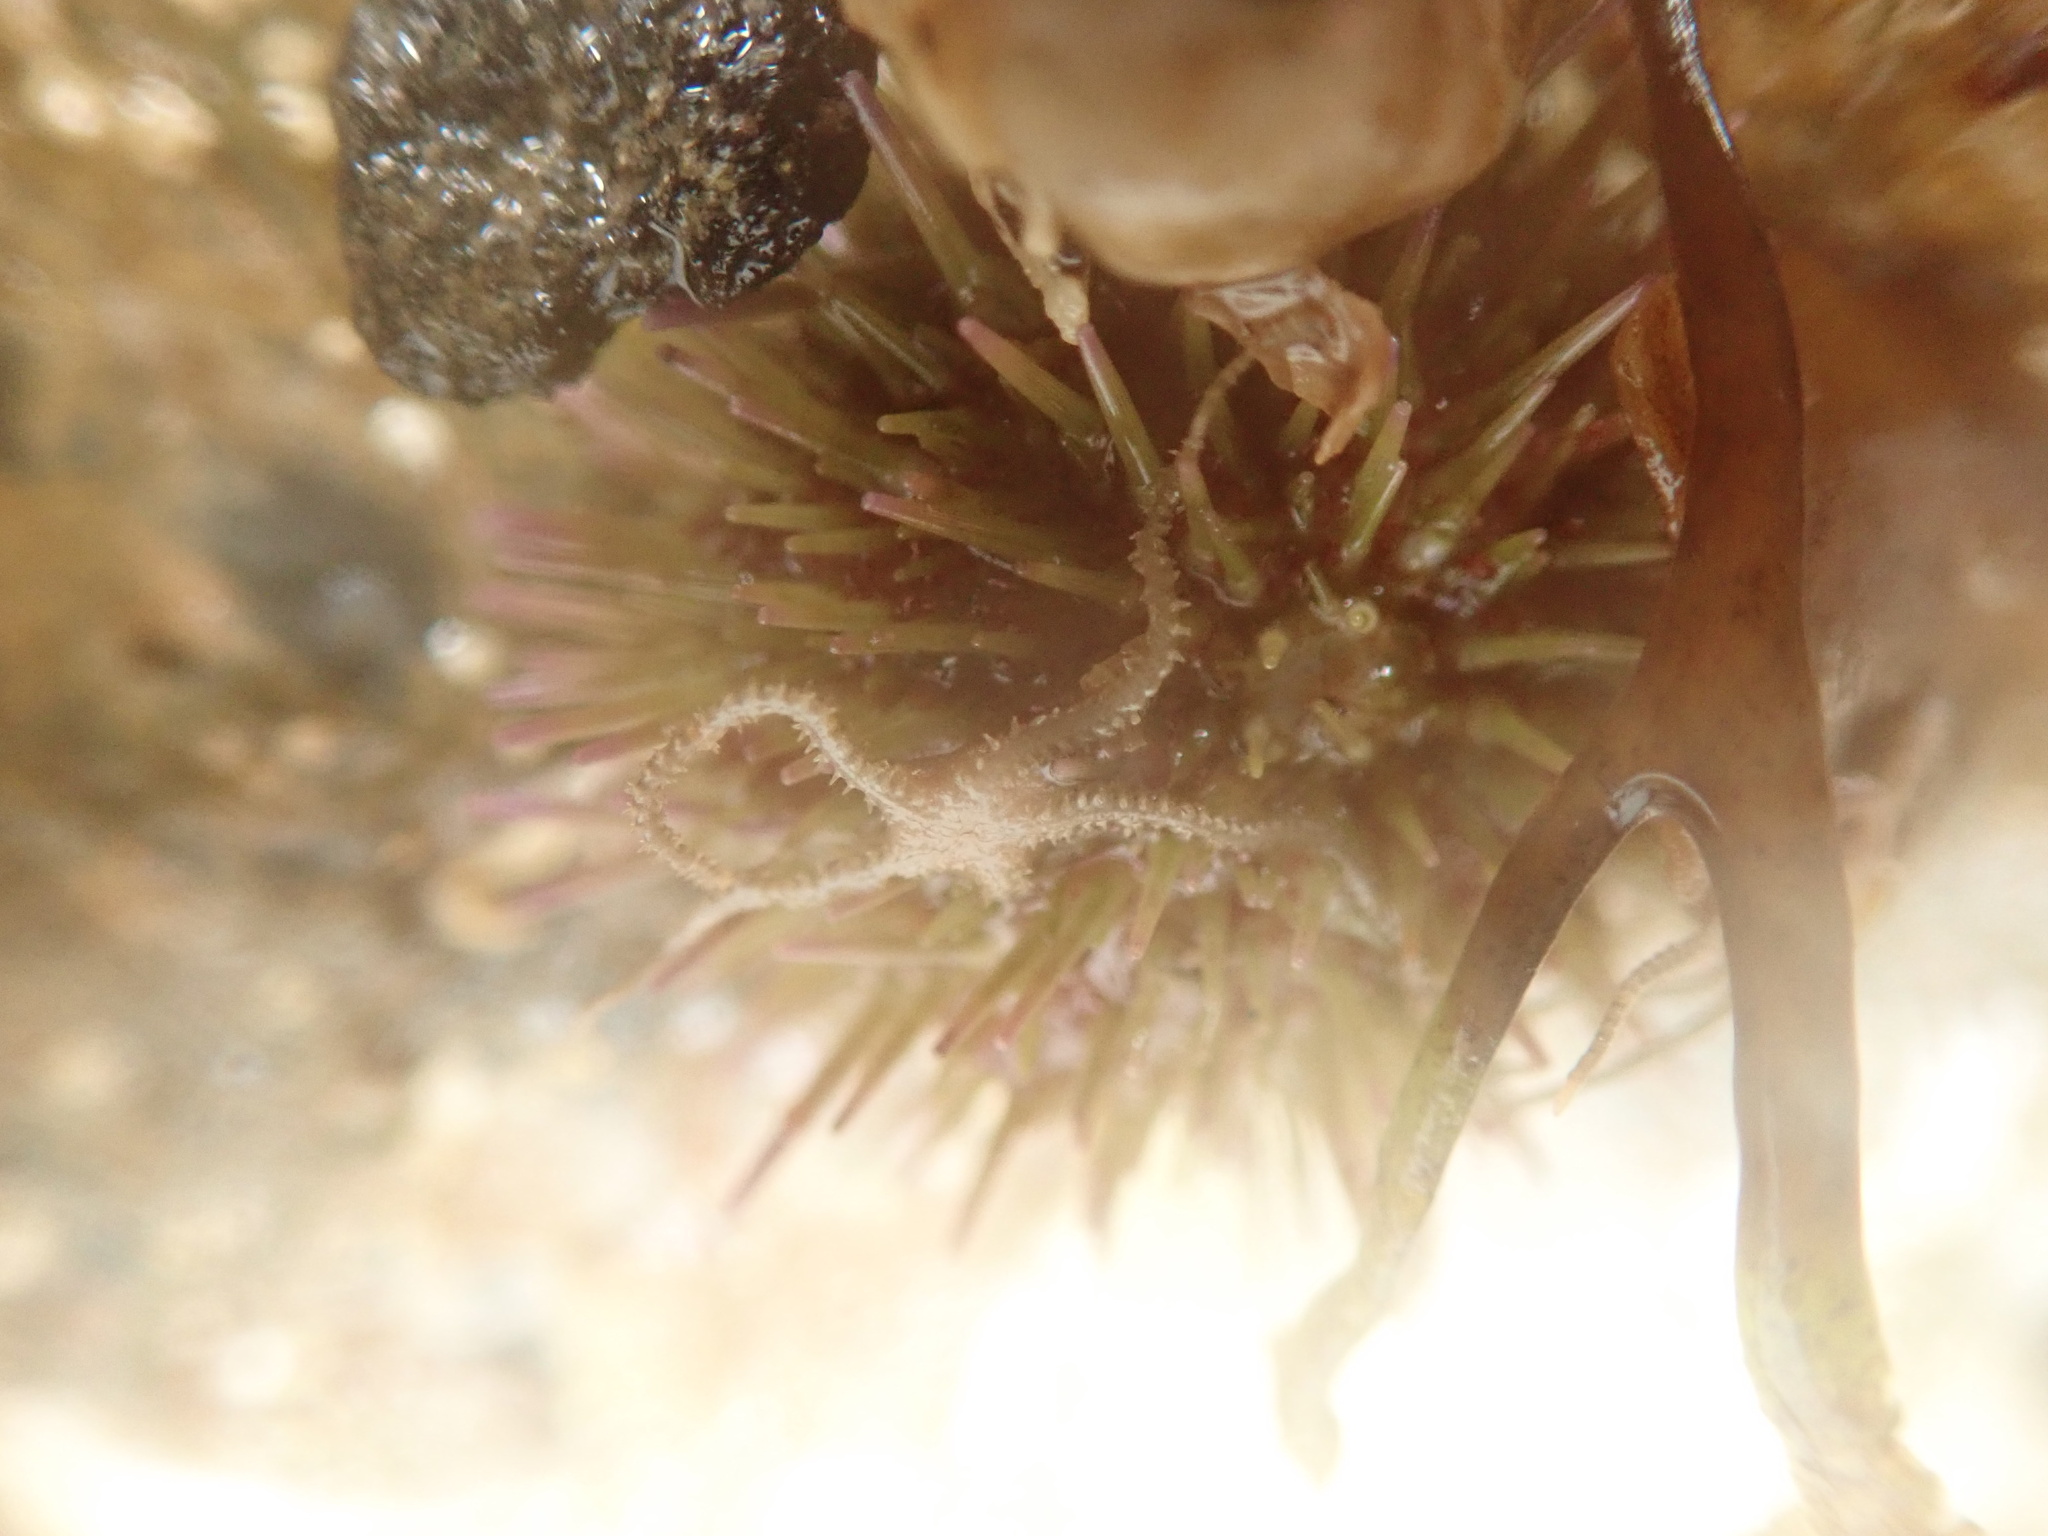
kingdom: Animalia
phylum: Echinodermata
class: Ophiuroidea
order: Amphilepidida
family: Amphiuridae
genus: Amphipholis
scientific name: Amphipholis squamata
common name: Brooding snake star
